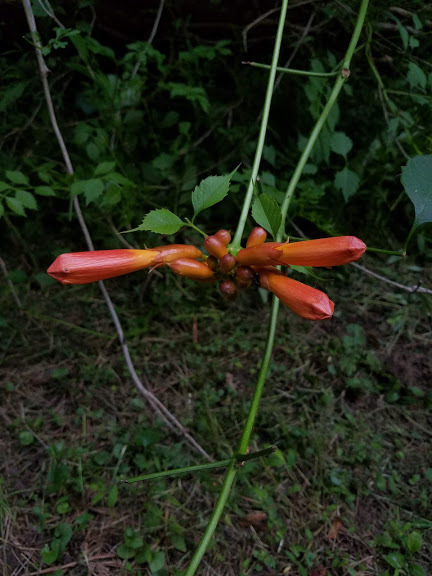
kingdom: Plantae
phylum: Tracheophyta
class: Magnoliopsida
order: Lamiales
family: Bignoniaceae
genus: Campsis
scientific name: Campsis radicans
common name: Trumpet-creeper
